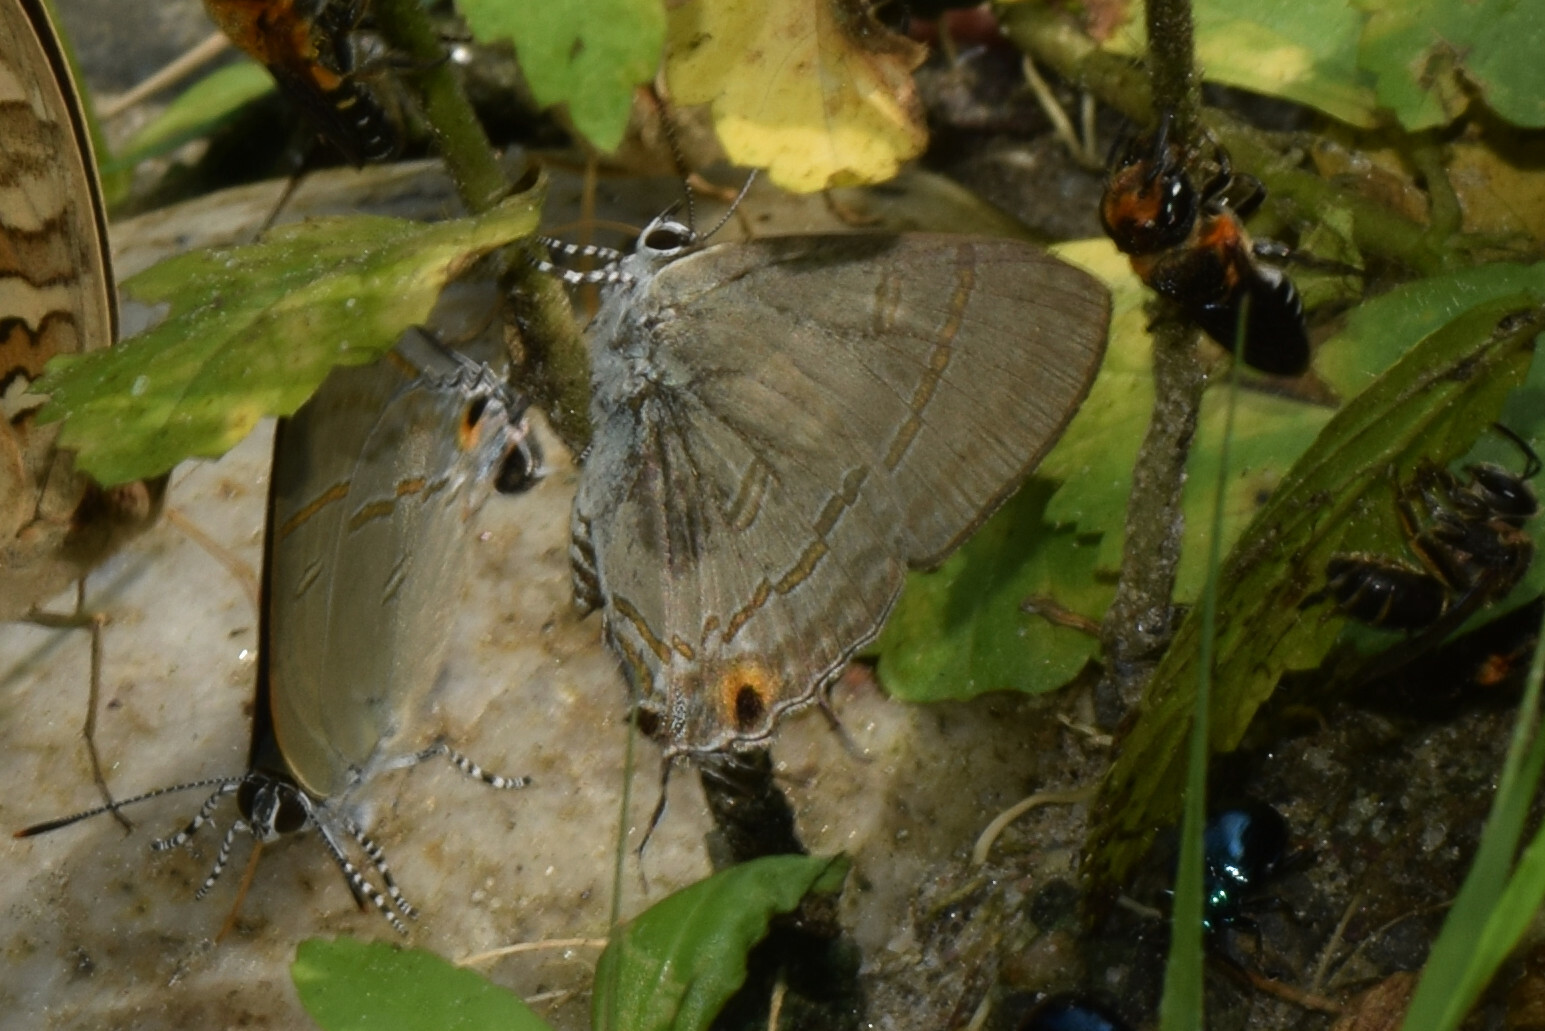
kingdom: Animalia
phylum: Arthropoda
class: Insecta
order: Lepidoptera
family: Lycaenidae
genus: Hypolycaena
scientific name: Hypolycaena erylus
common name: Common tit
